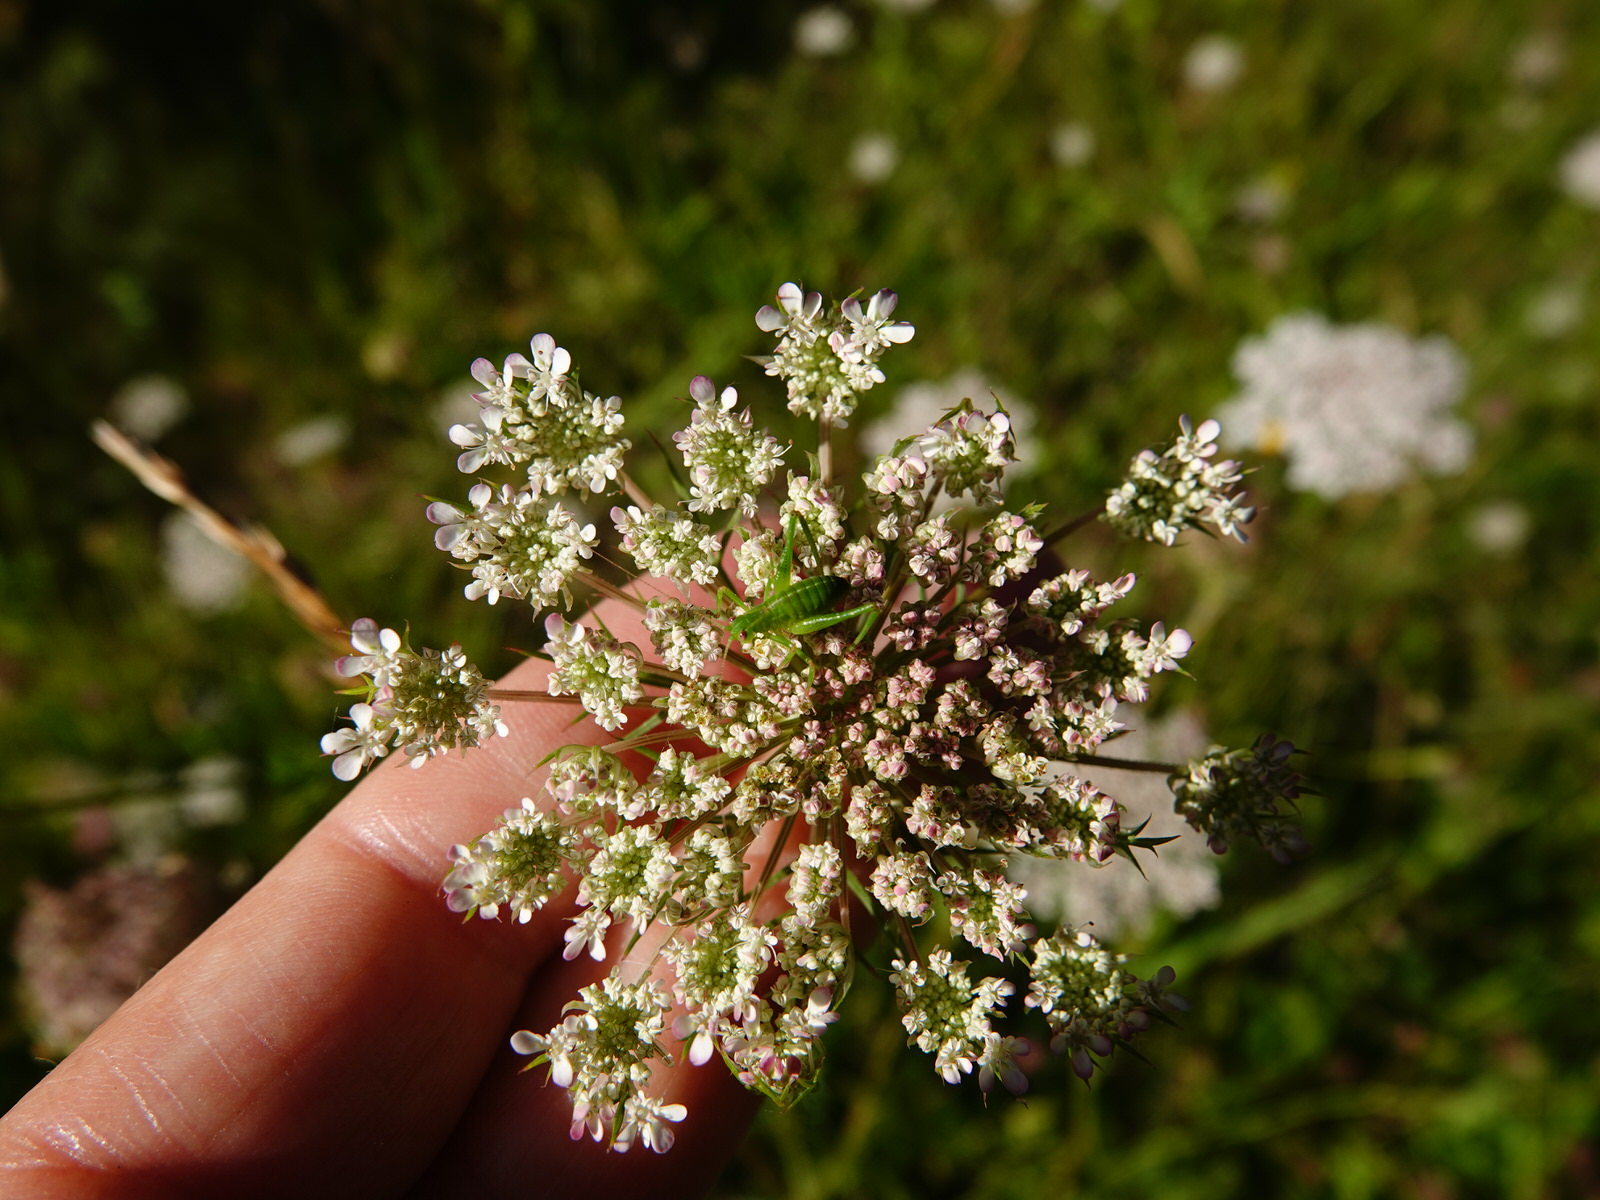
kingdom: Animalia
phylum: Arthropoda
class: Insecta
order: Orthoptera
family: Tettigoniidae
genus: Caedicia
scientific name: Caedicia simplex
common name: Common garden katydid
